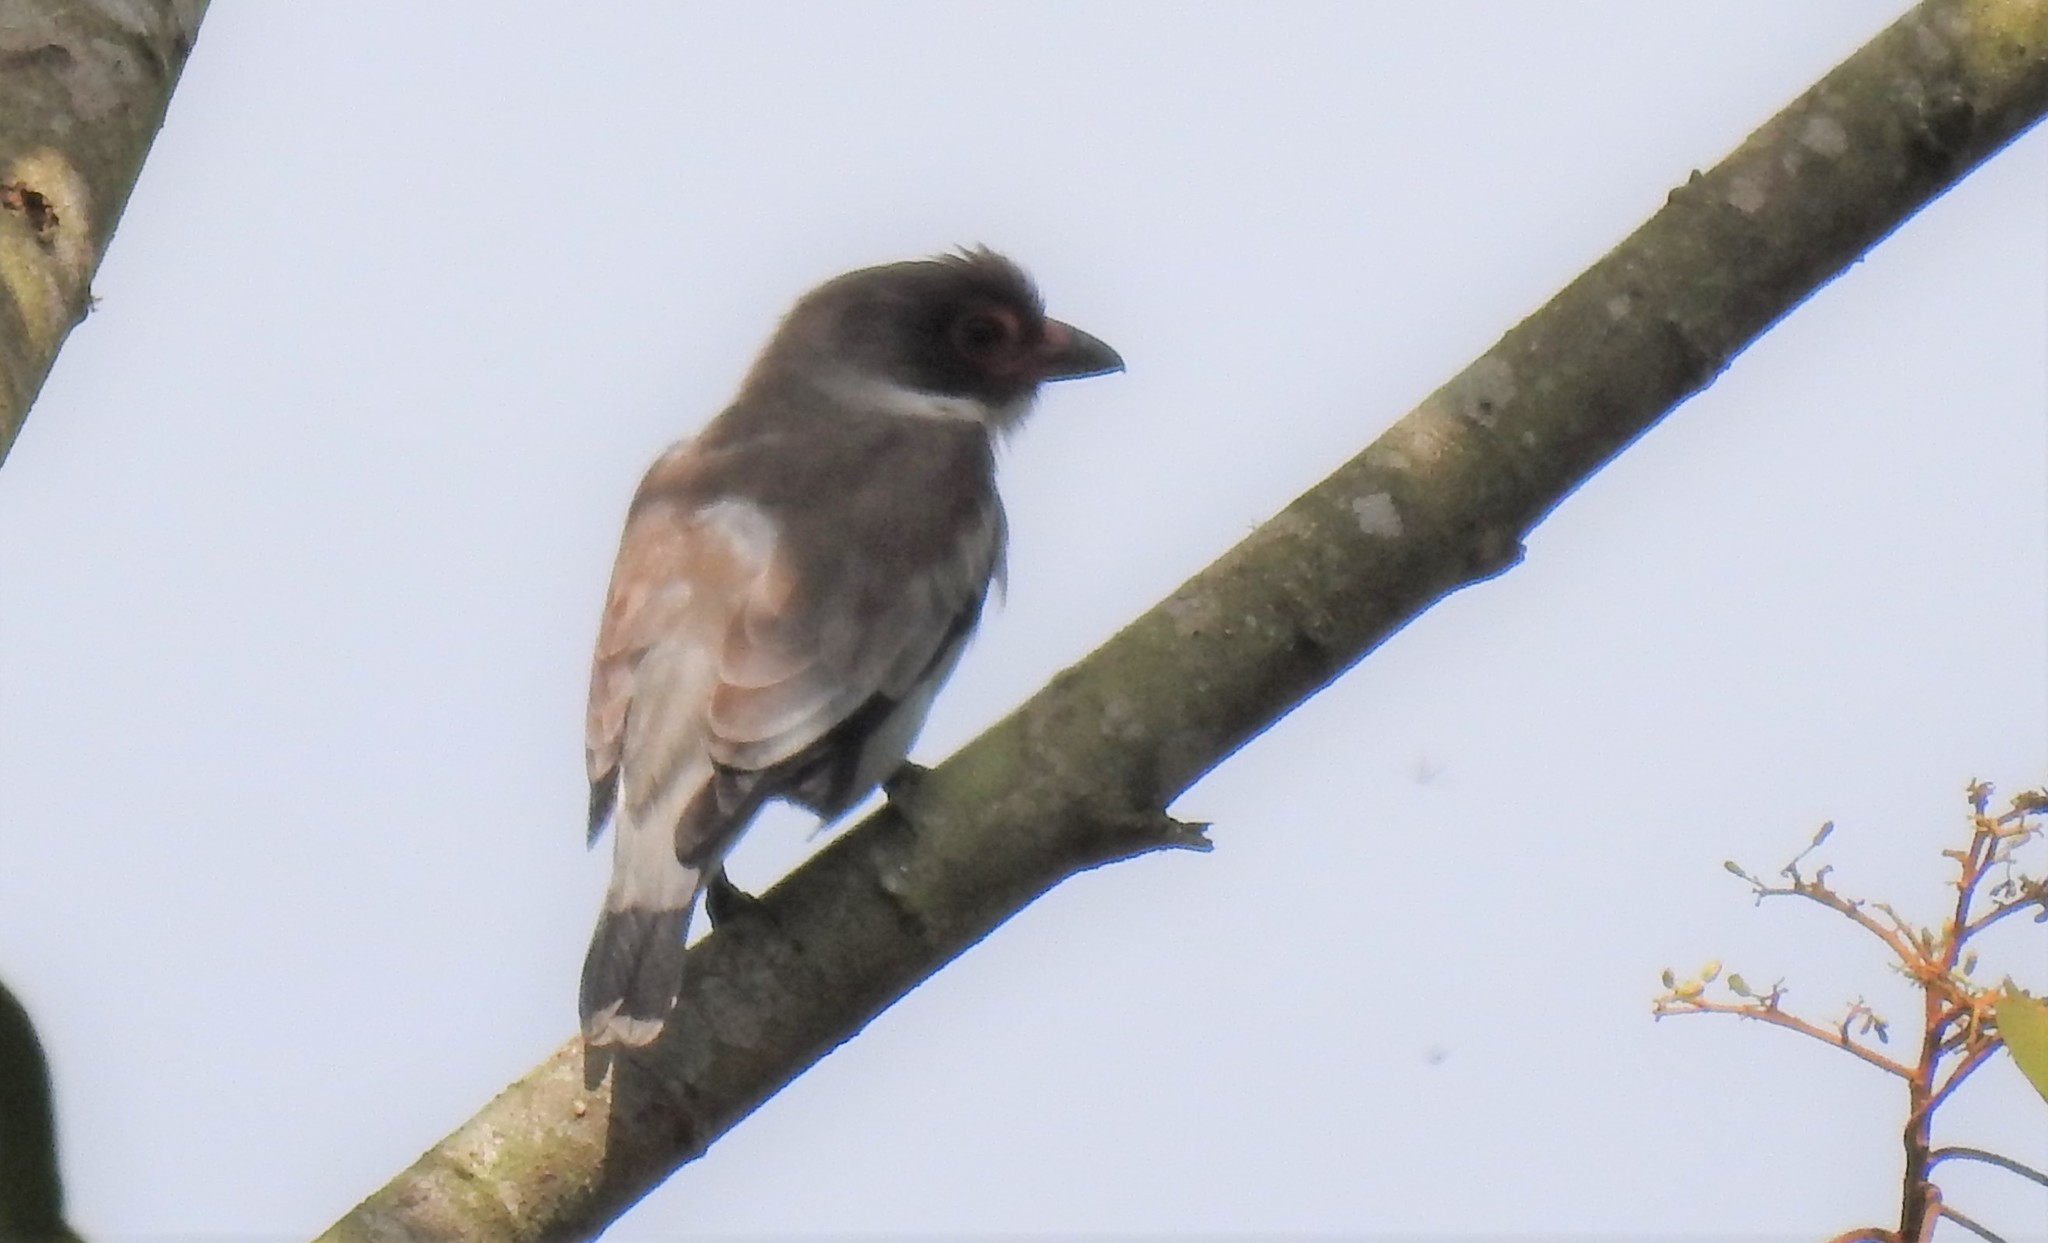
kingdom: Animalia
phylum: Chordata
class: Aves
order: Passeriformes
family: Cotingidae
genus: Tityra
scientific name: Tityra semifasciata
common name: Masked tityra
